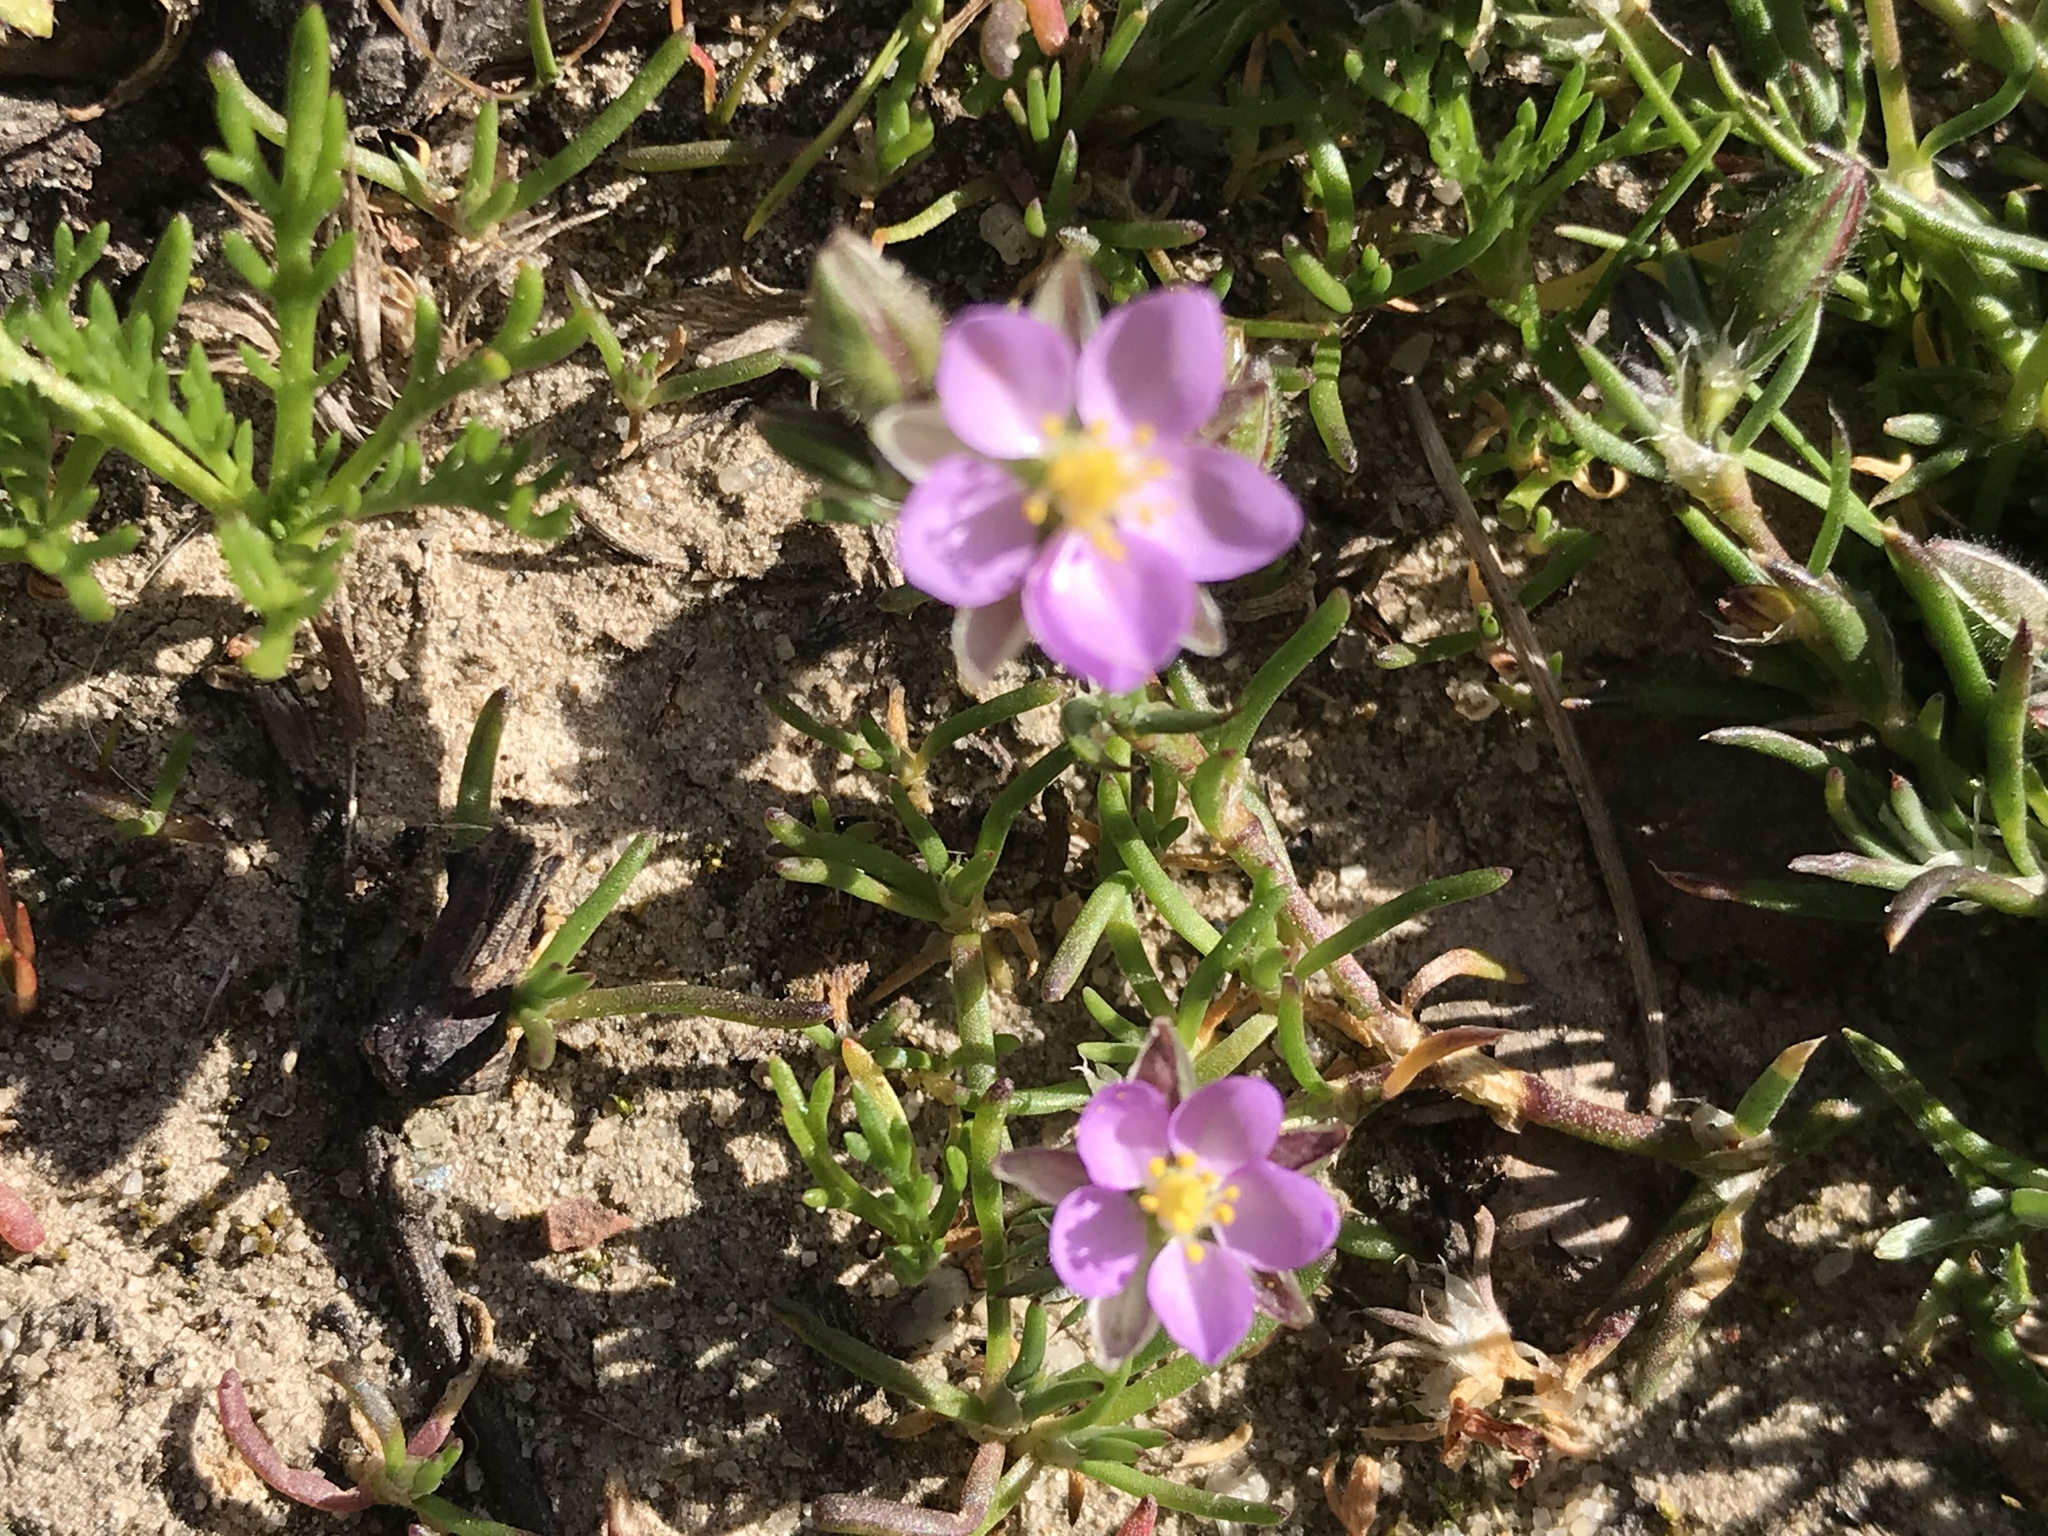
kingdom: Plantae
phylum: Tracheophyta
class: Magnoliopsida
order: Caryophyllales
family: Caryophyllaceae
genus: Spergularia
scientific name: Spergularia rubra
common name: Red sand-spurrey
